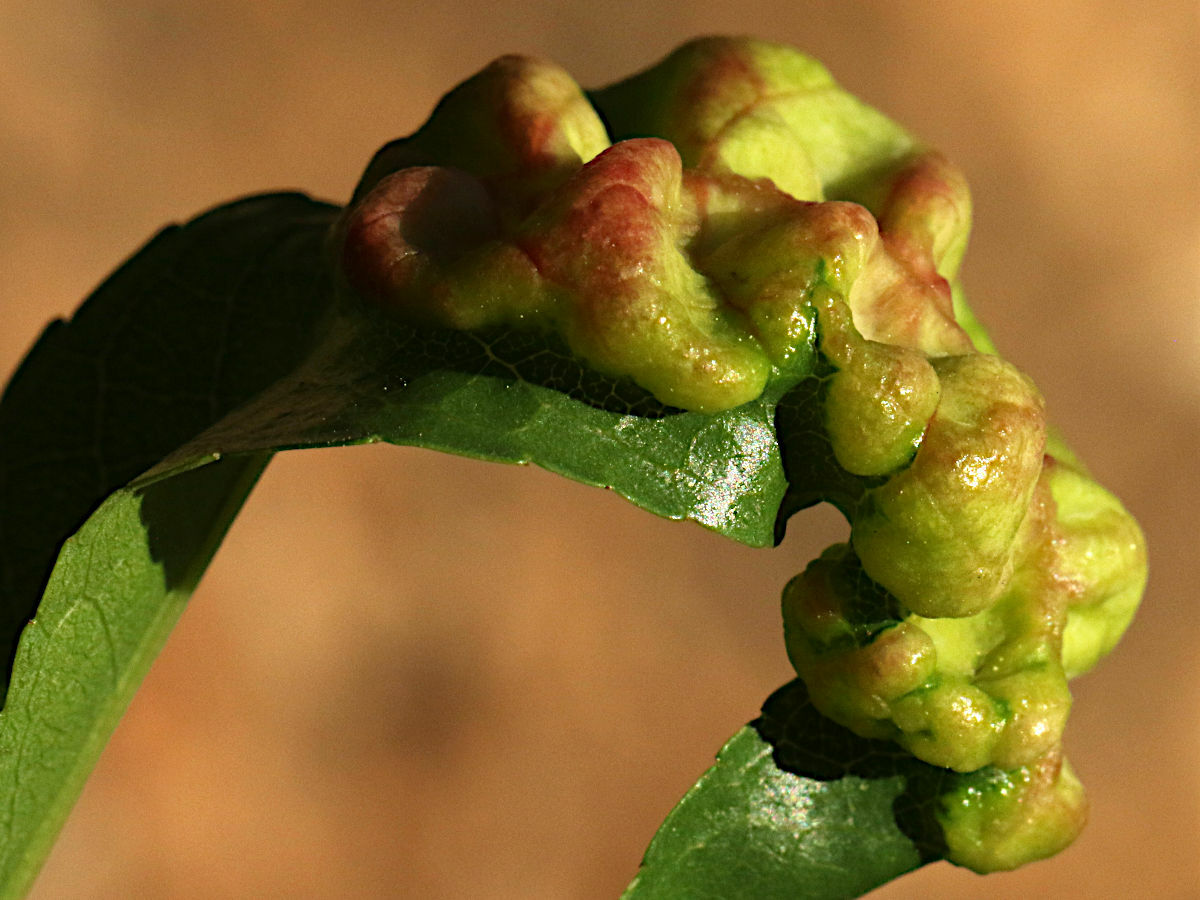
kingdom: Fungi
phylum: Ascomycota
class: Taphrinomycetes
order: Taphrinales
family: Taphrinaceae
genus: Taphrina
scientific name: Taphrina deformans
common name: Peach leaf curl
